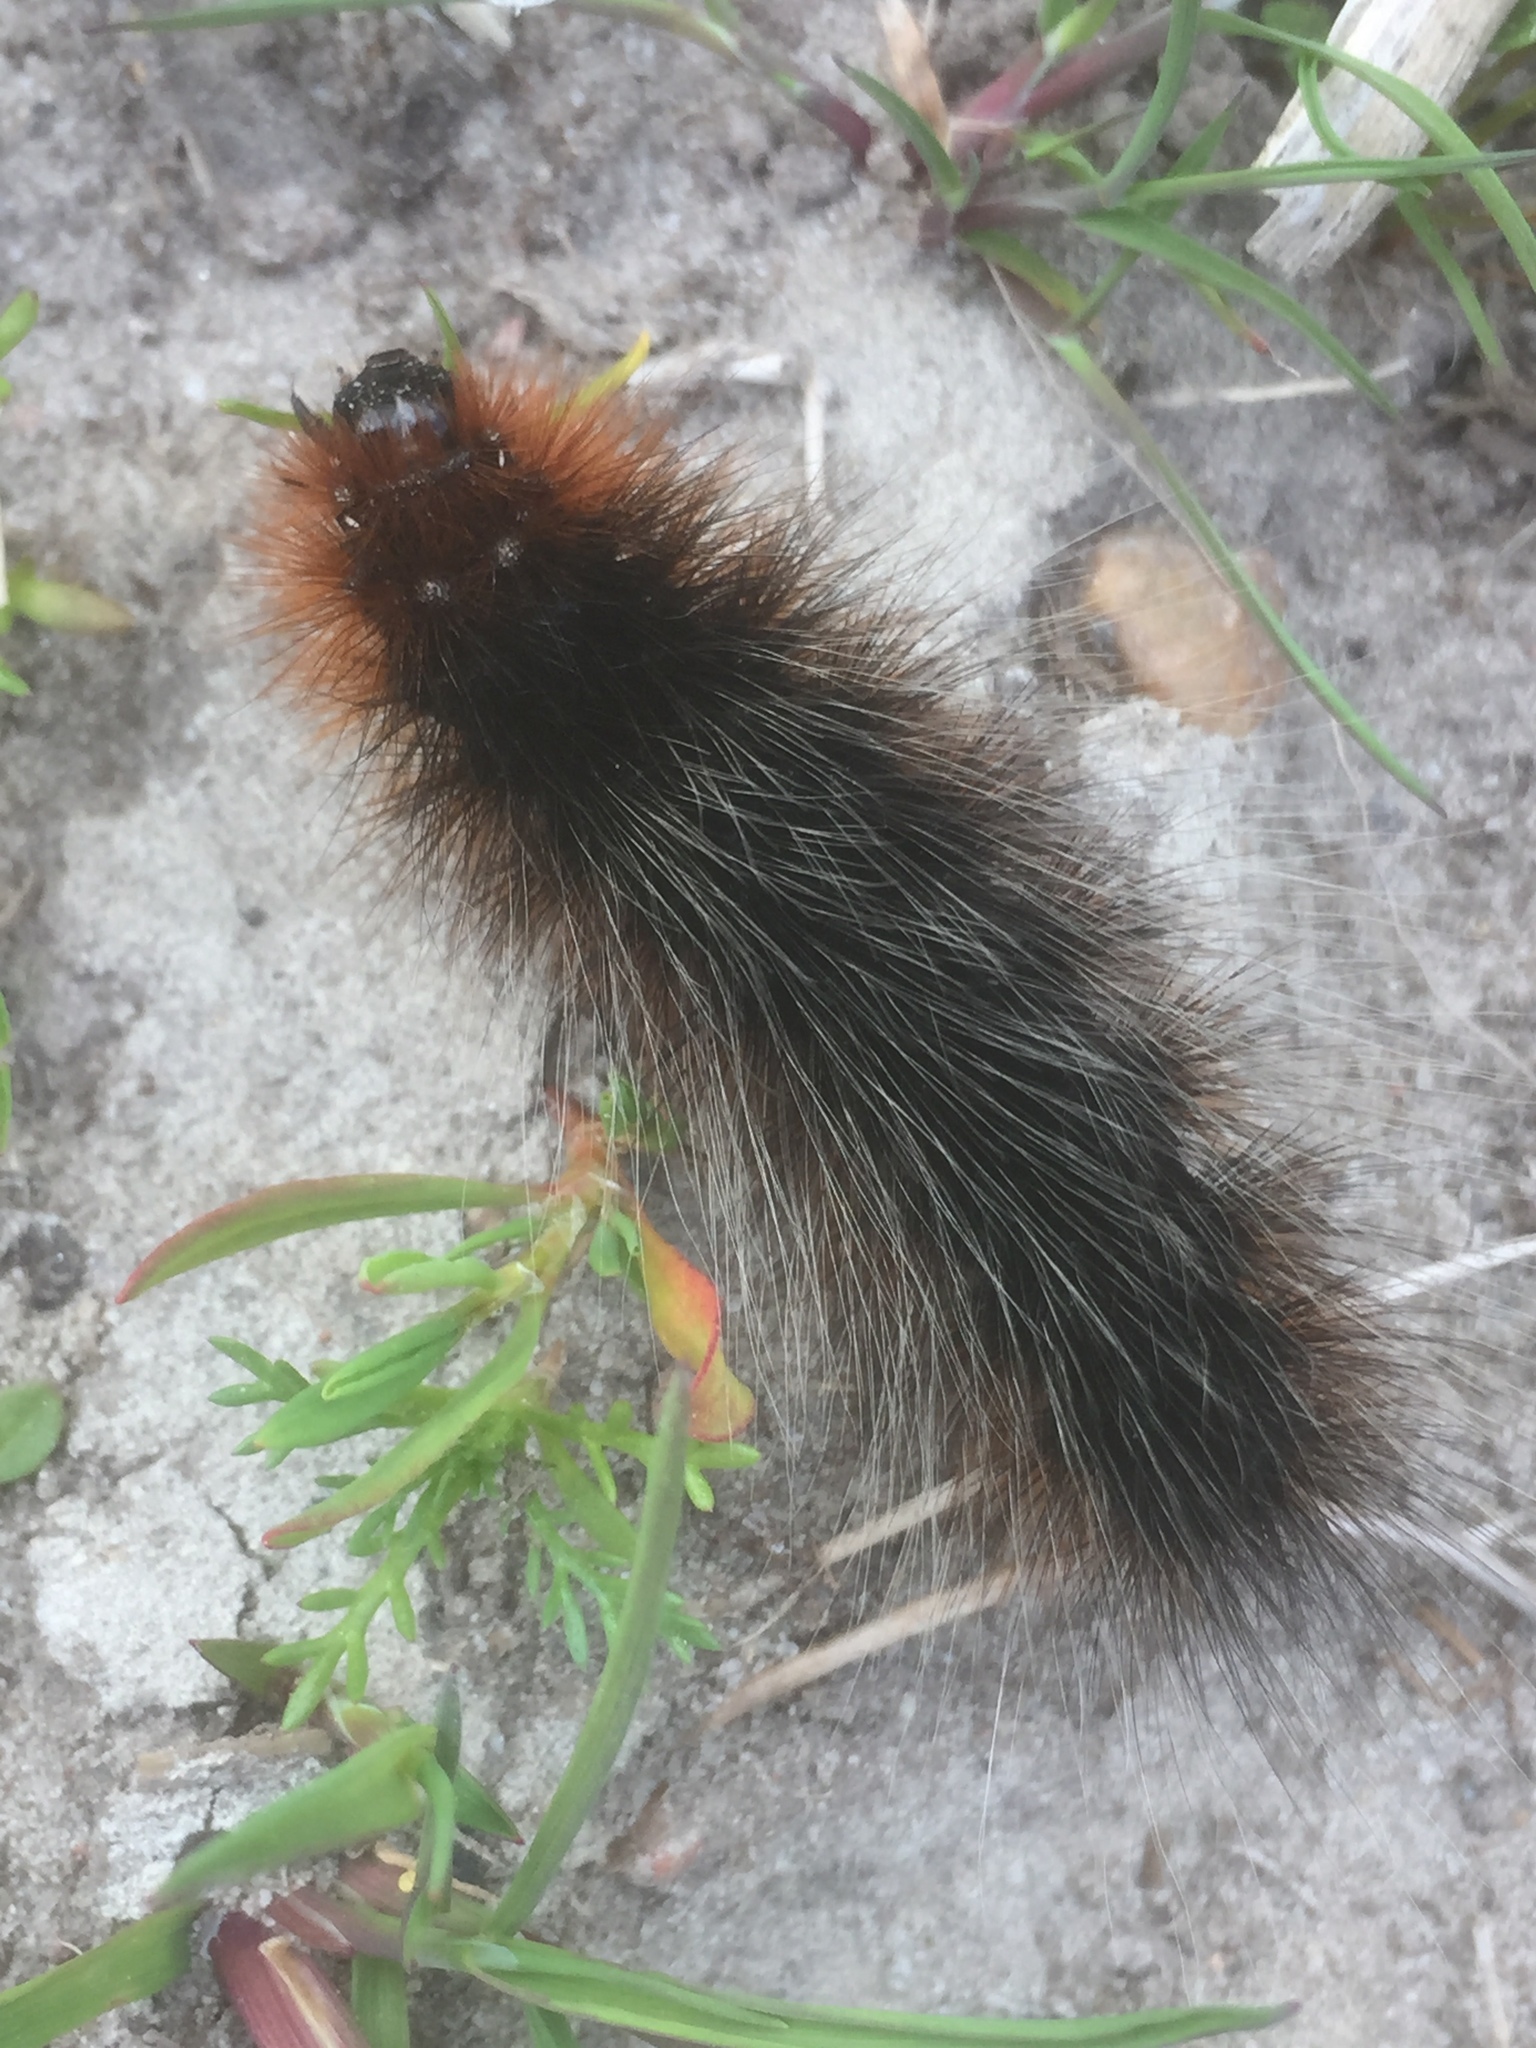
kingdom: Animalia
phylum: Arthropoda
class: Insecta
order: Lepidoptera
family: Erebidae
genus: Arctia
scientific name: Arctia caja
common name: Garden tiger
